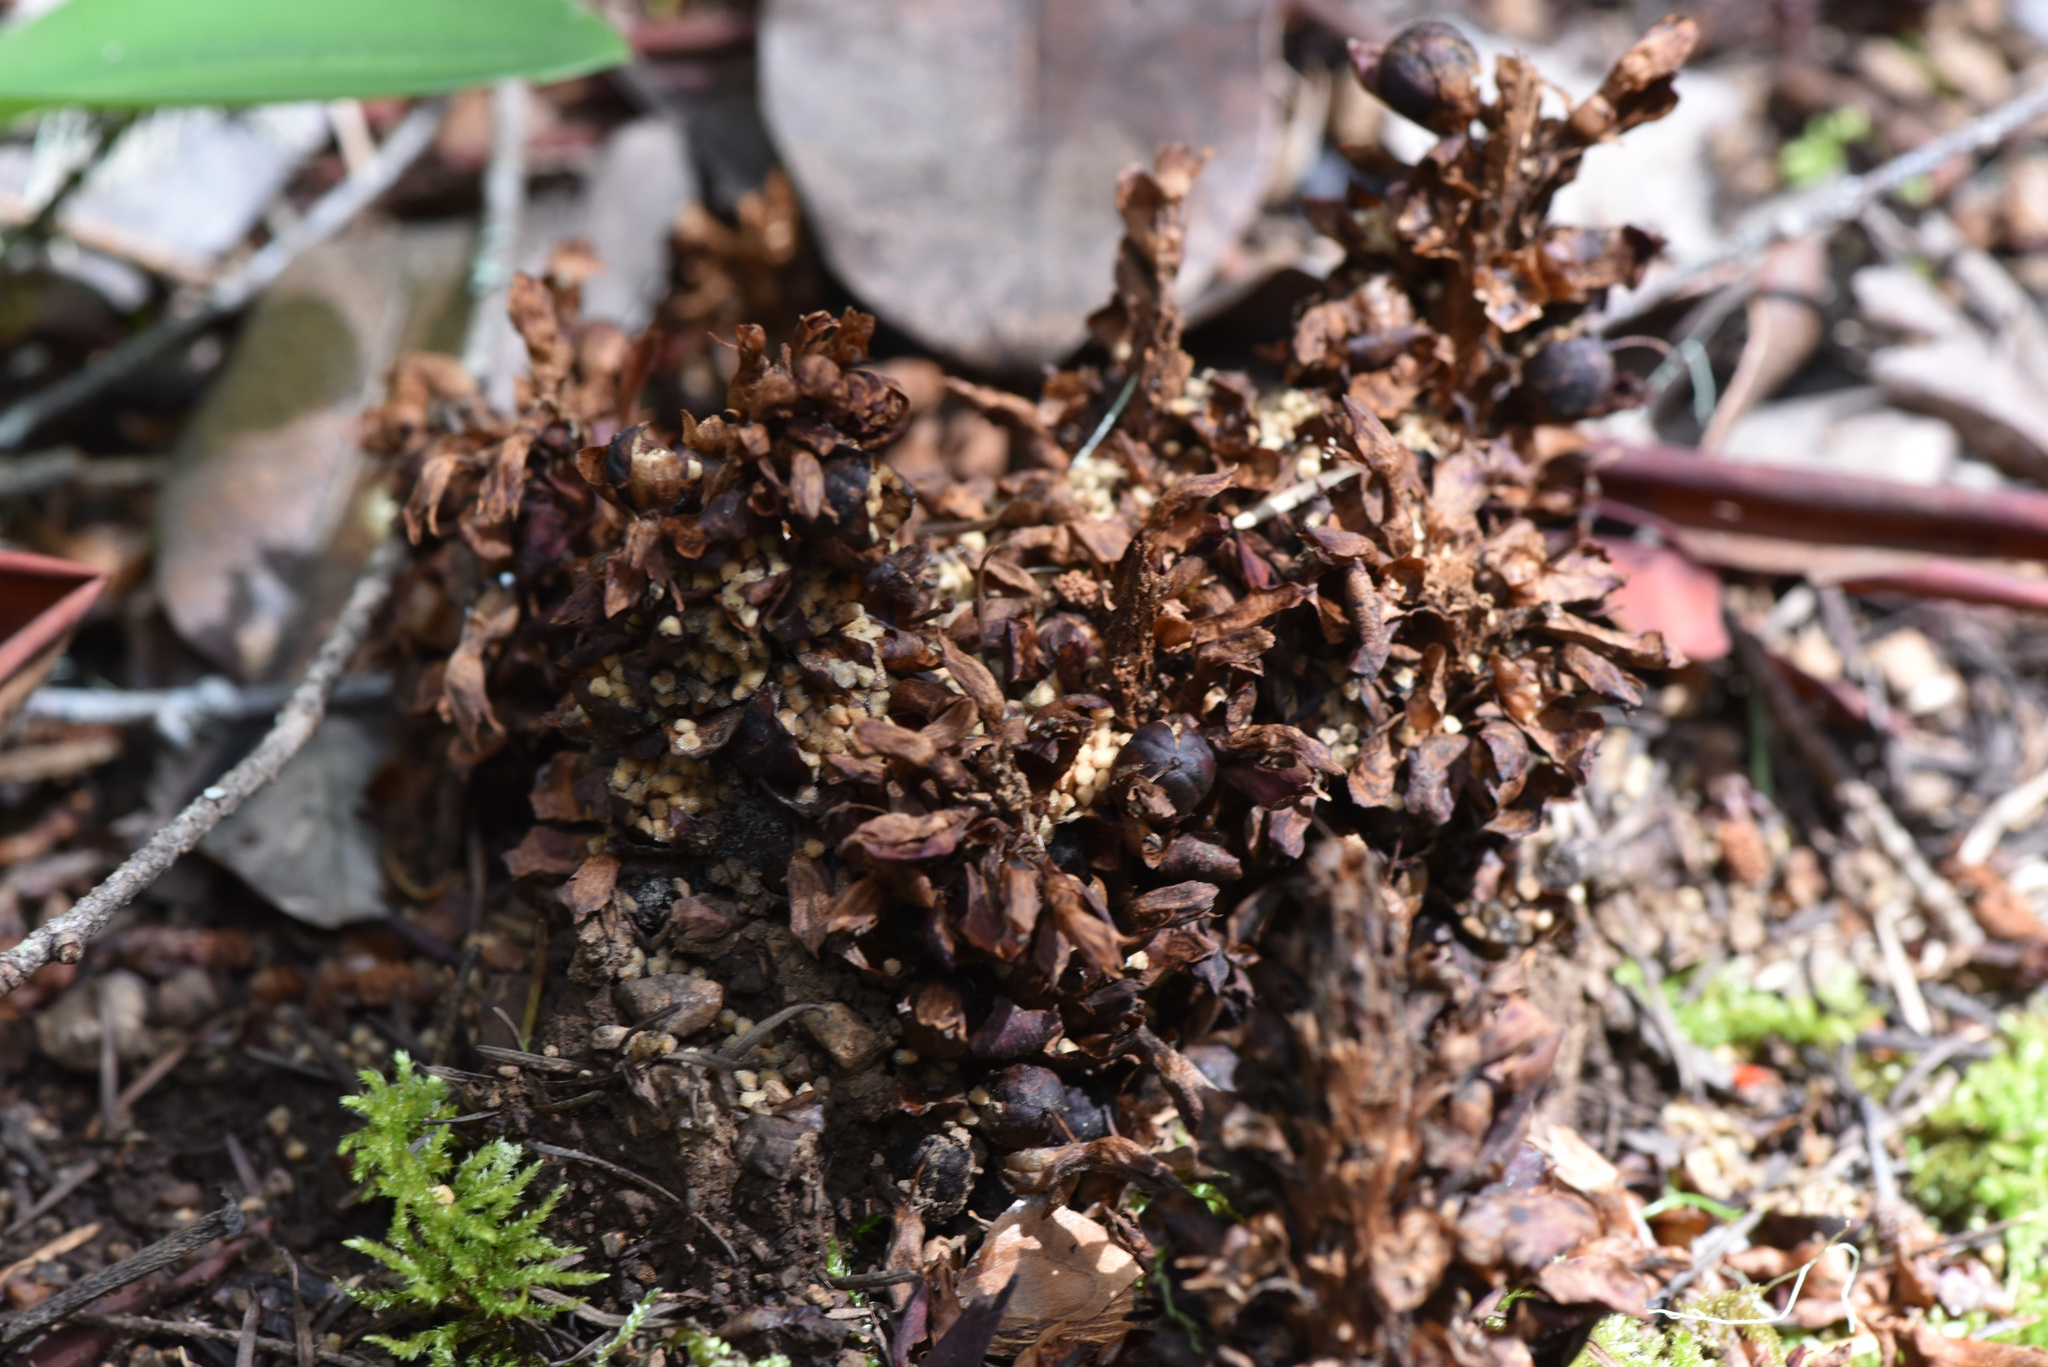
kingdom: Plantae
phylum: Tracheophyta
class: Magnoliopsida
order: Lamiales
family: Orobanchaceae
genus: Kopsiopsis
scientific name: Kopsiopsis hookeri
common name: Hooker's groundcone
